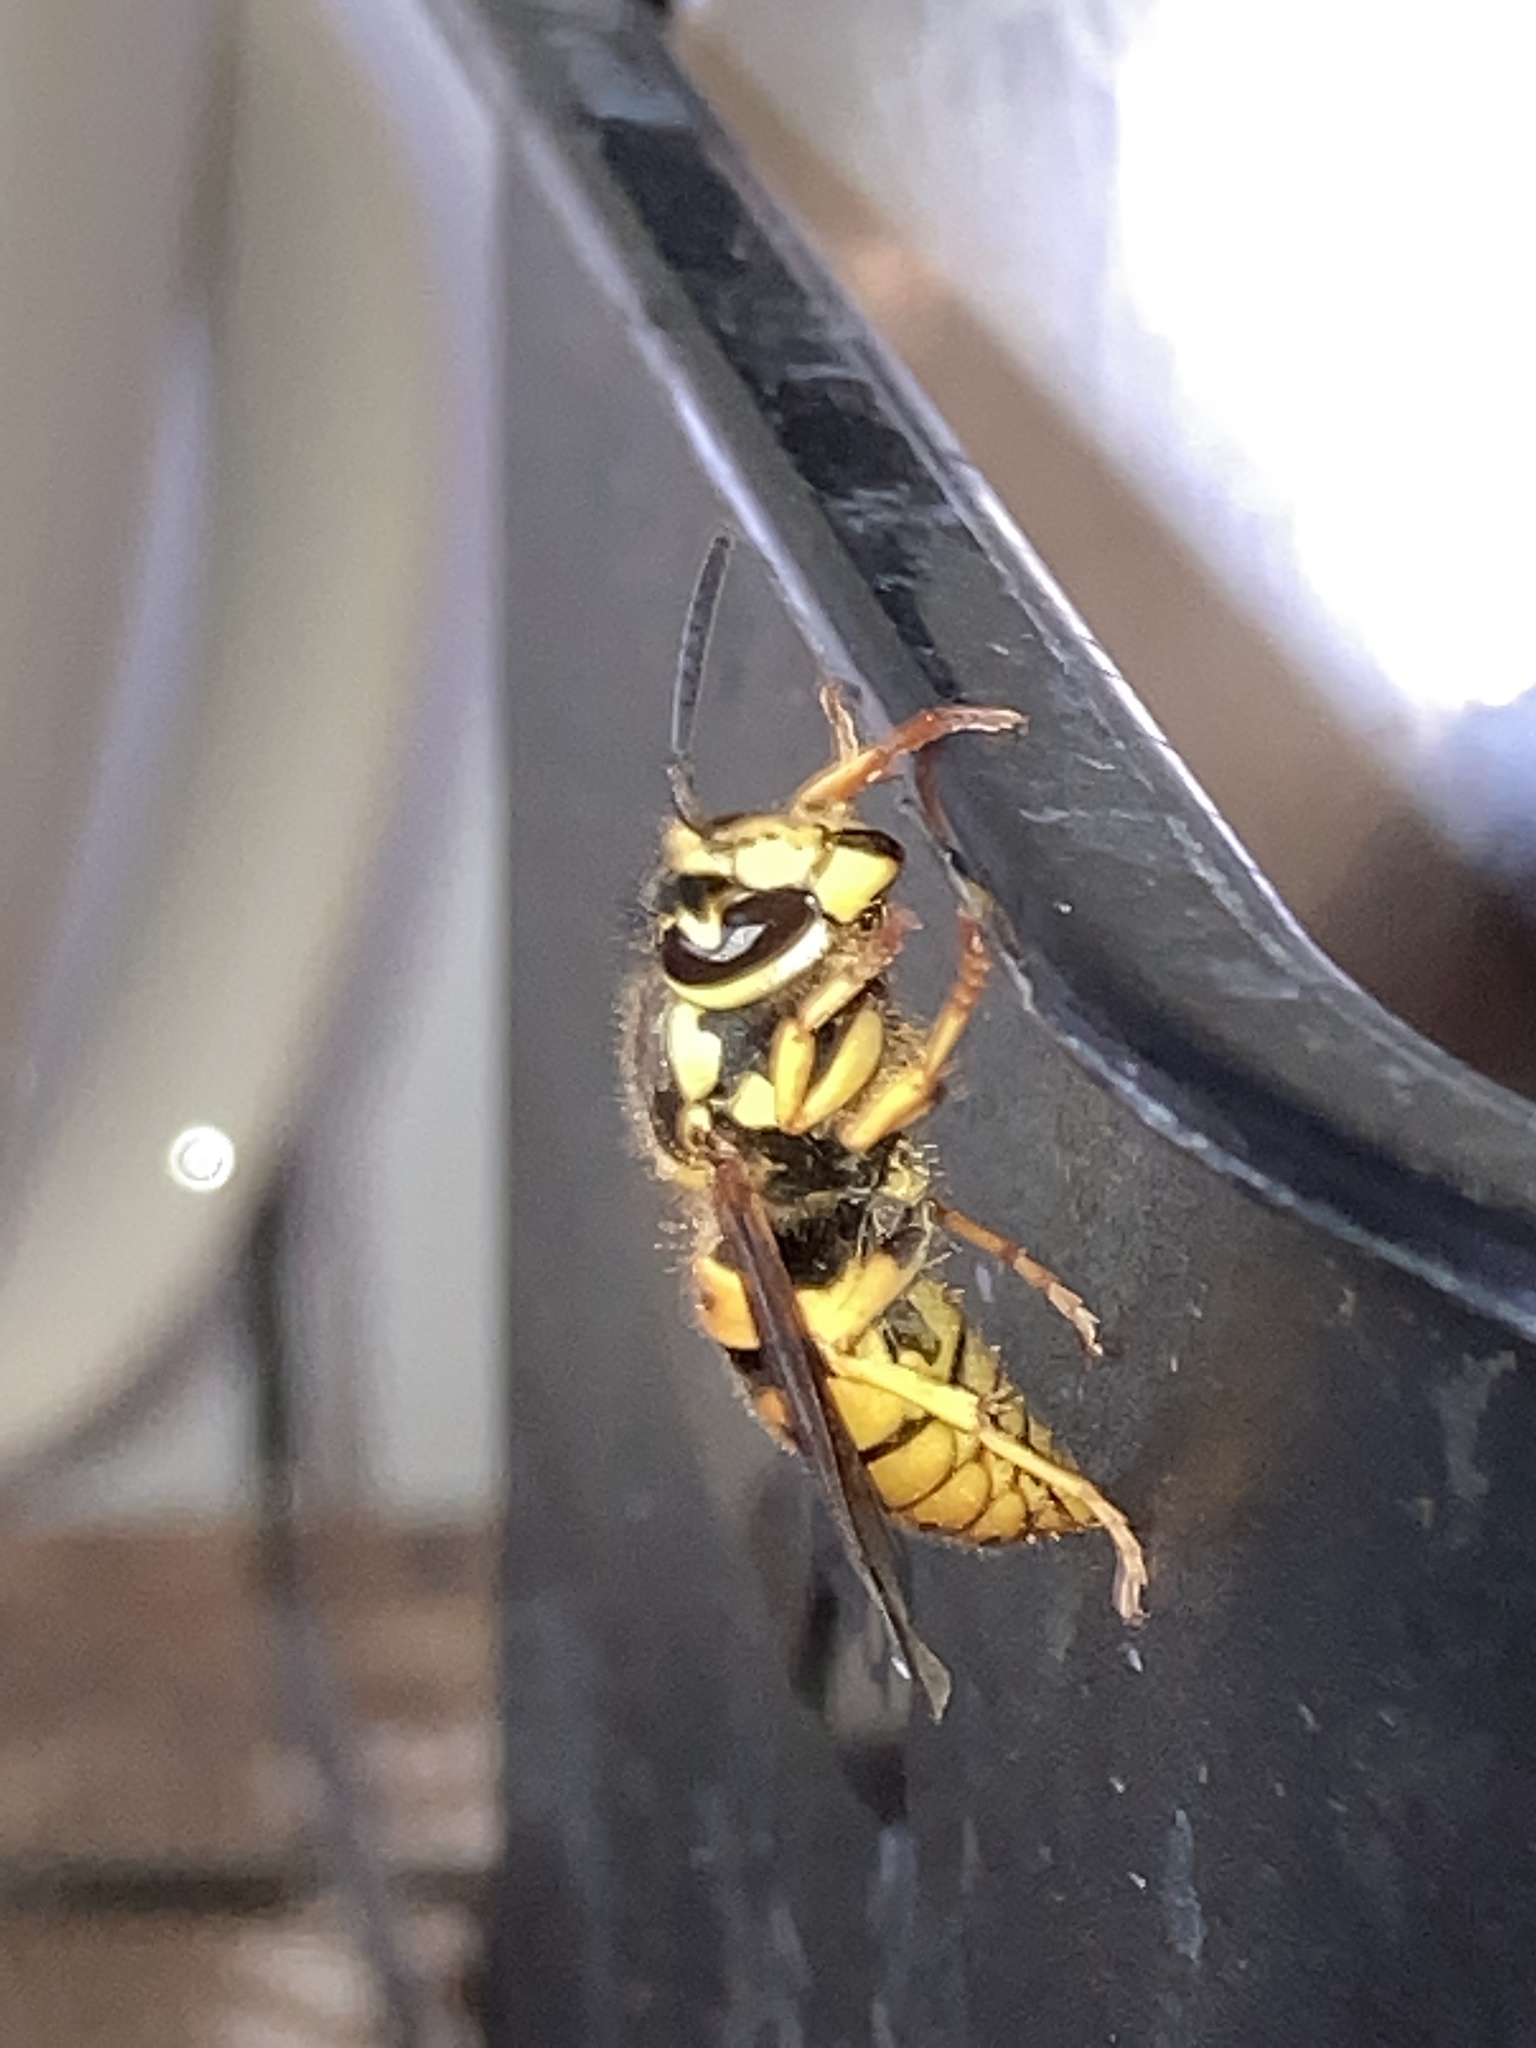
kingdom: Animalia
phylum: Arthropoda
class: Insecta
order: Hymenoptera
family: Vespidae
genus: Vespula
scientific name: Vespula maculifrons
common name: Eastern yellowjacket
